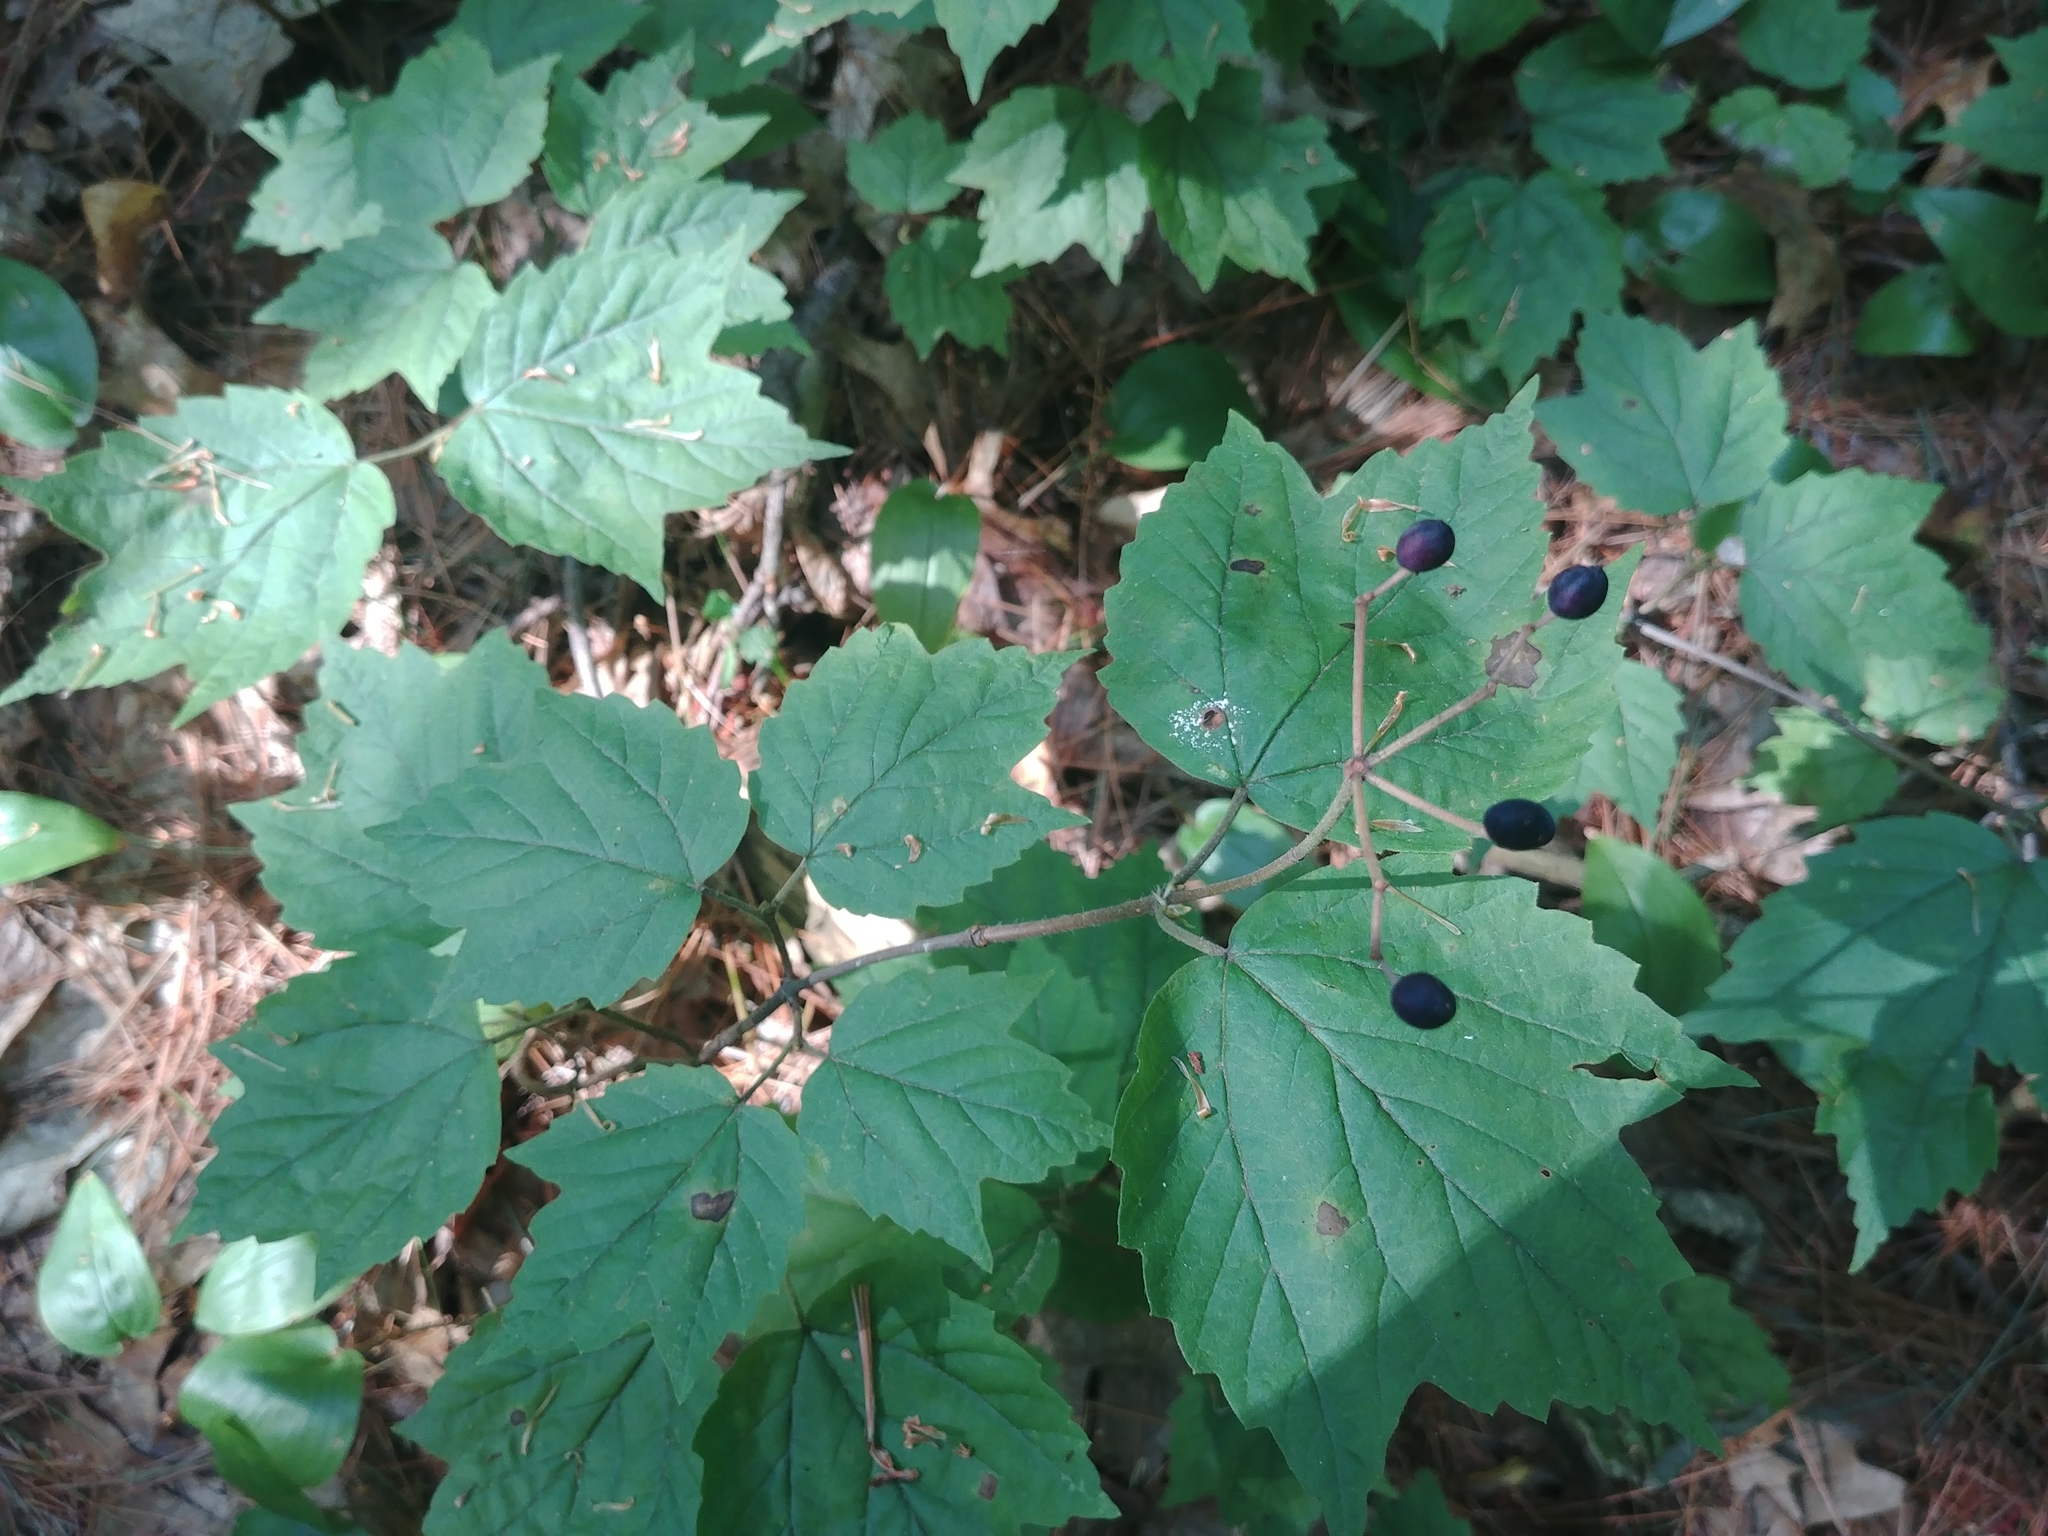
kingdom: Plantae
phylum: Tracheophyta
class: Magnoliopsida
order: Dipsacales
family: Viburnaceae
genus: Viburnum
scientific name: Viburnum acerifolium
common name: Dockmackie
